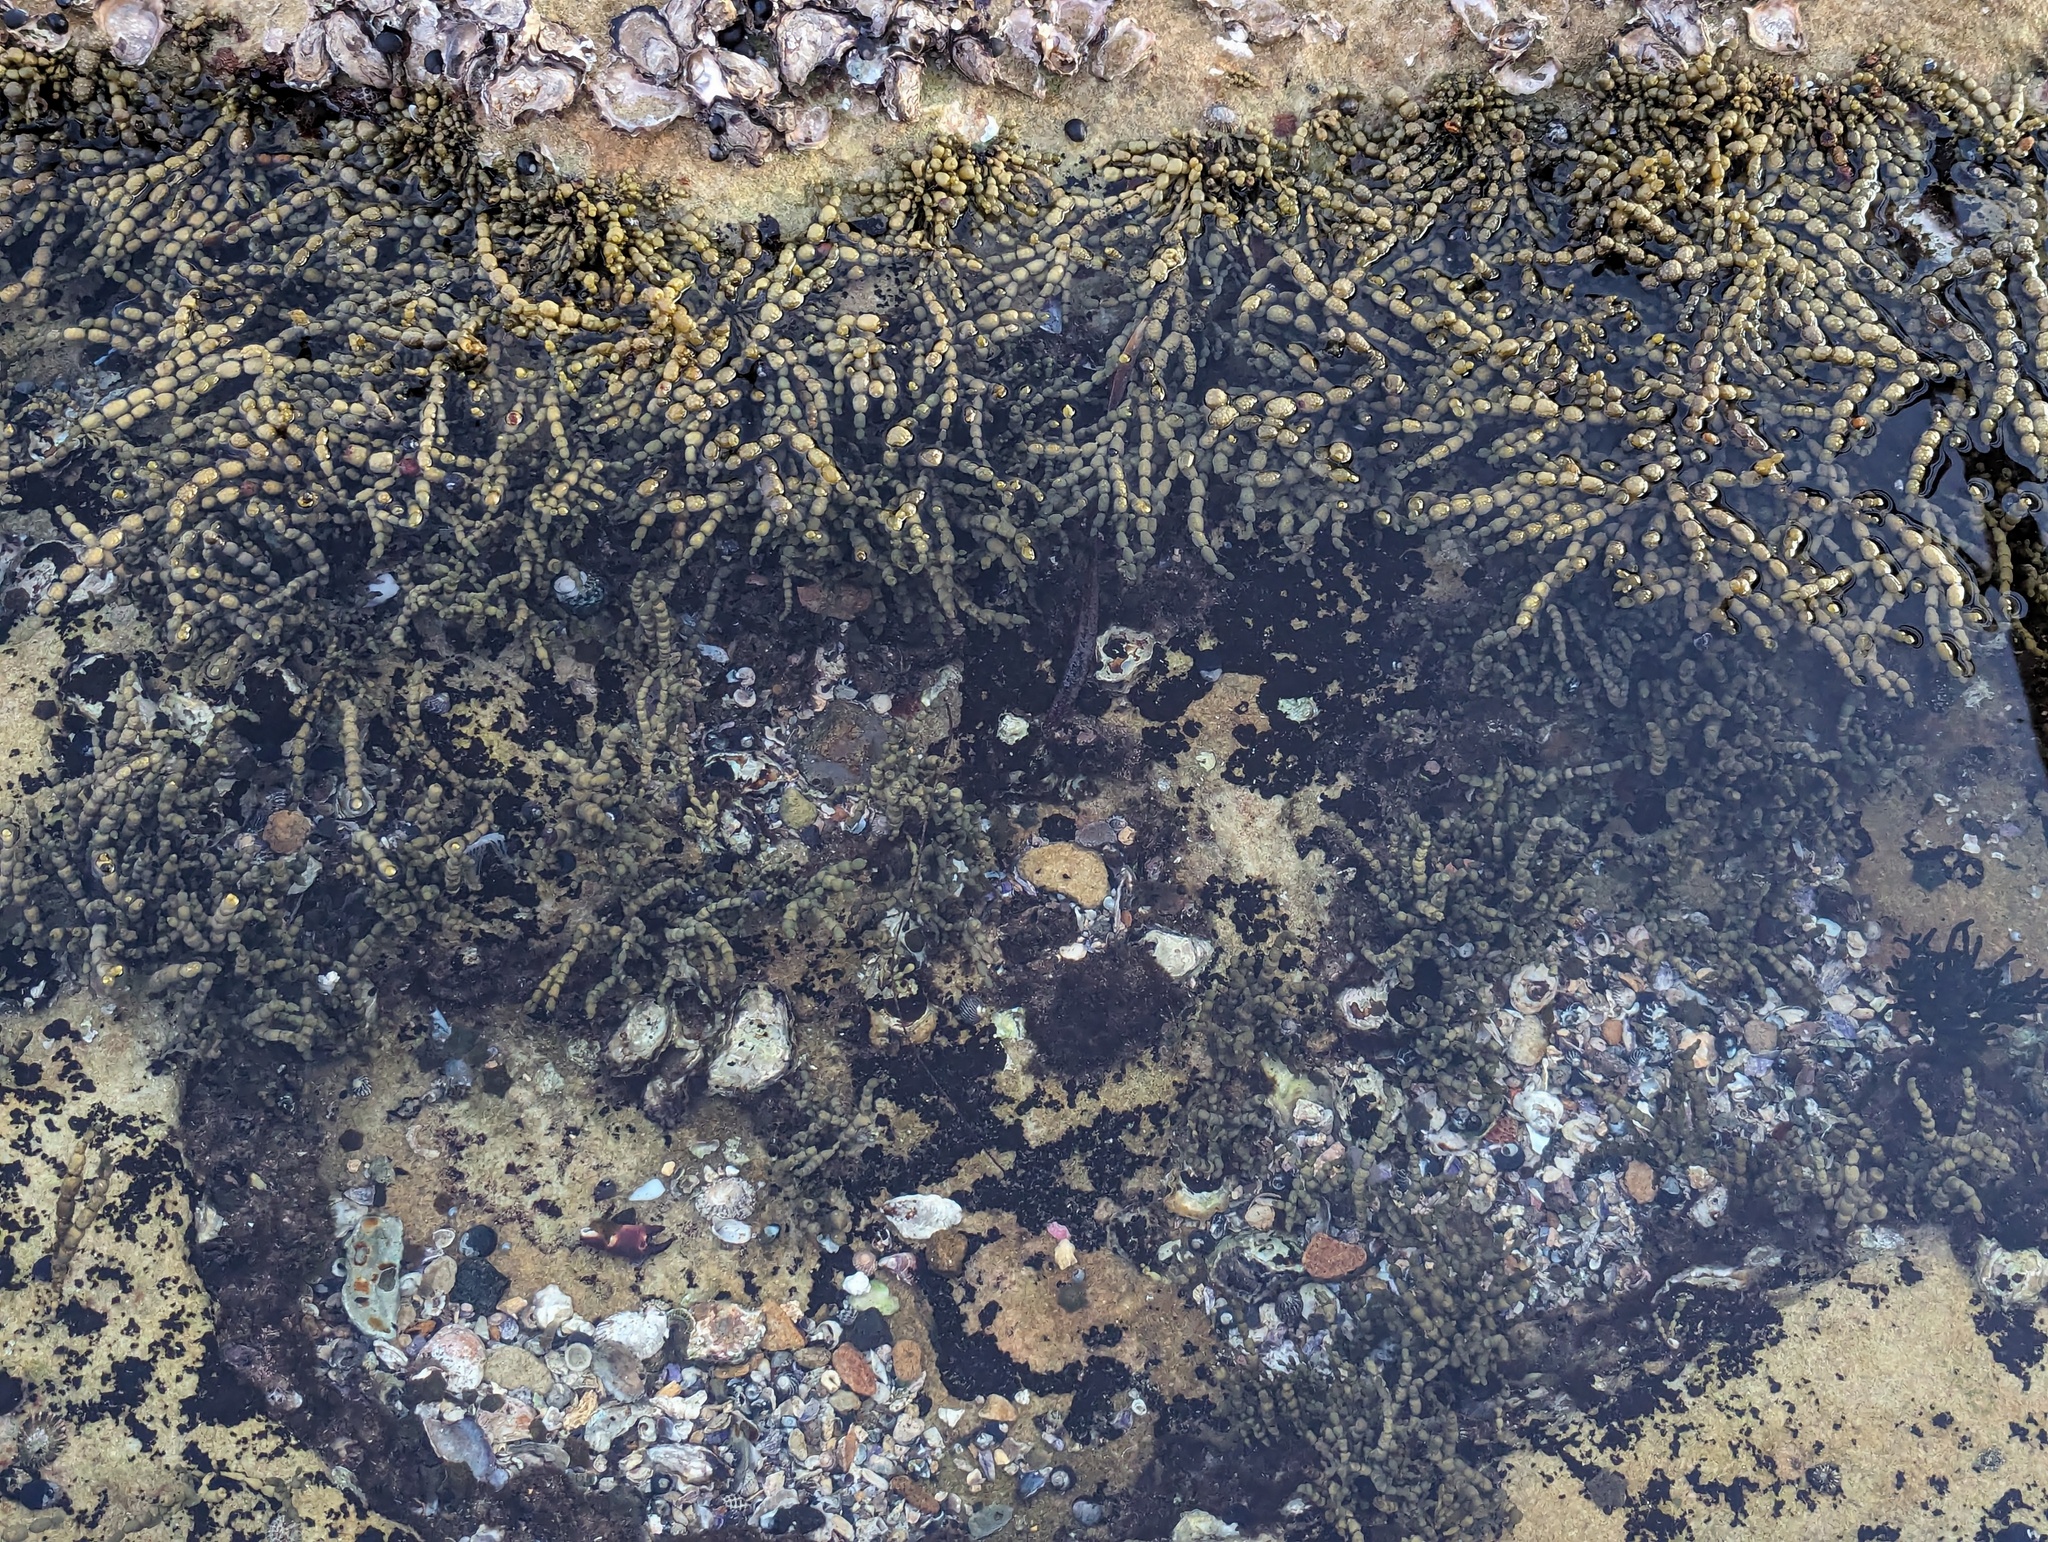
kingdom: Chromista
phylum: Ochrophyta
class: Phaeophyceae
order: Fucales
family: Hormosiraceae
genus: Hormosira
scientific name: Hormosira banksii
